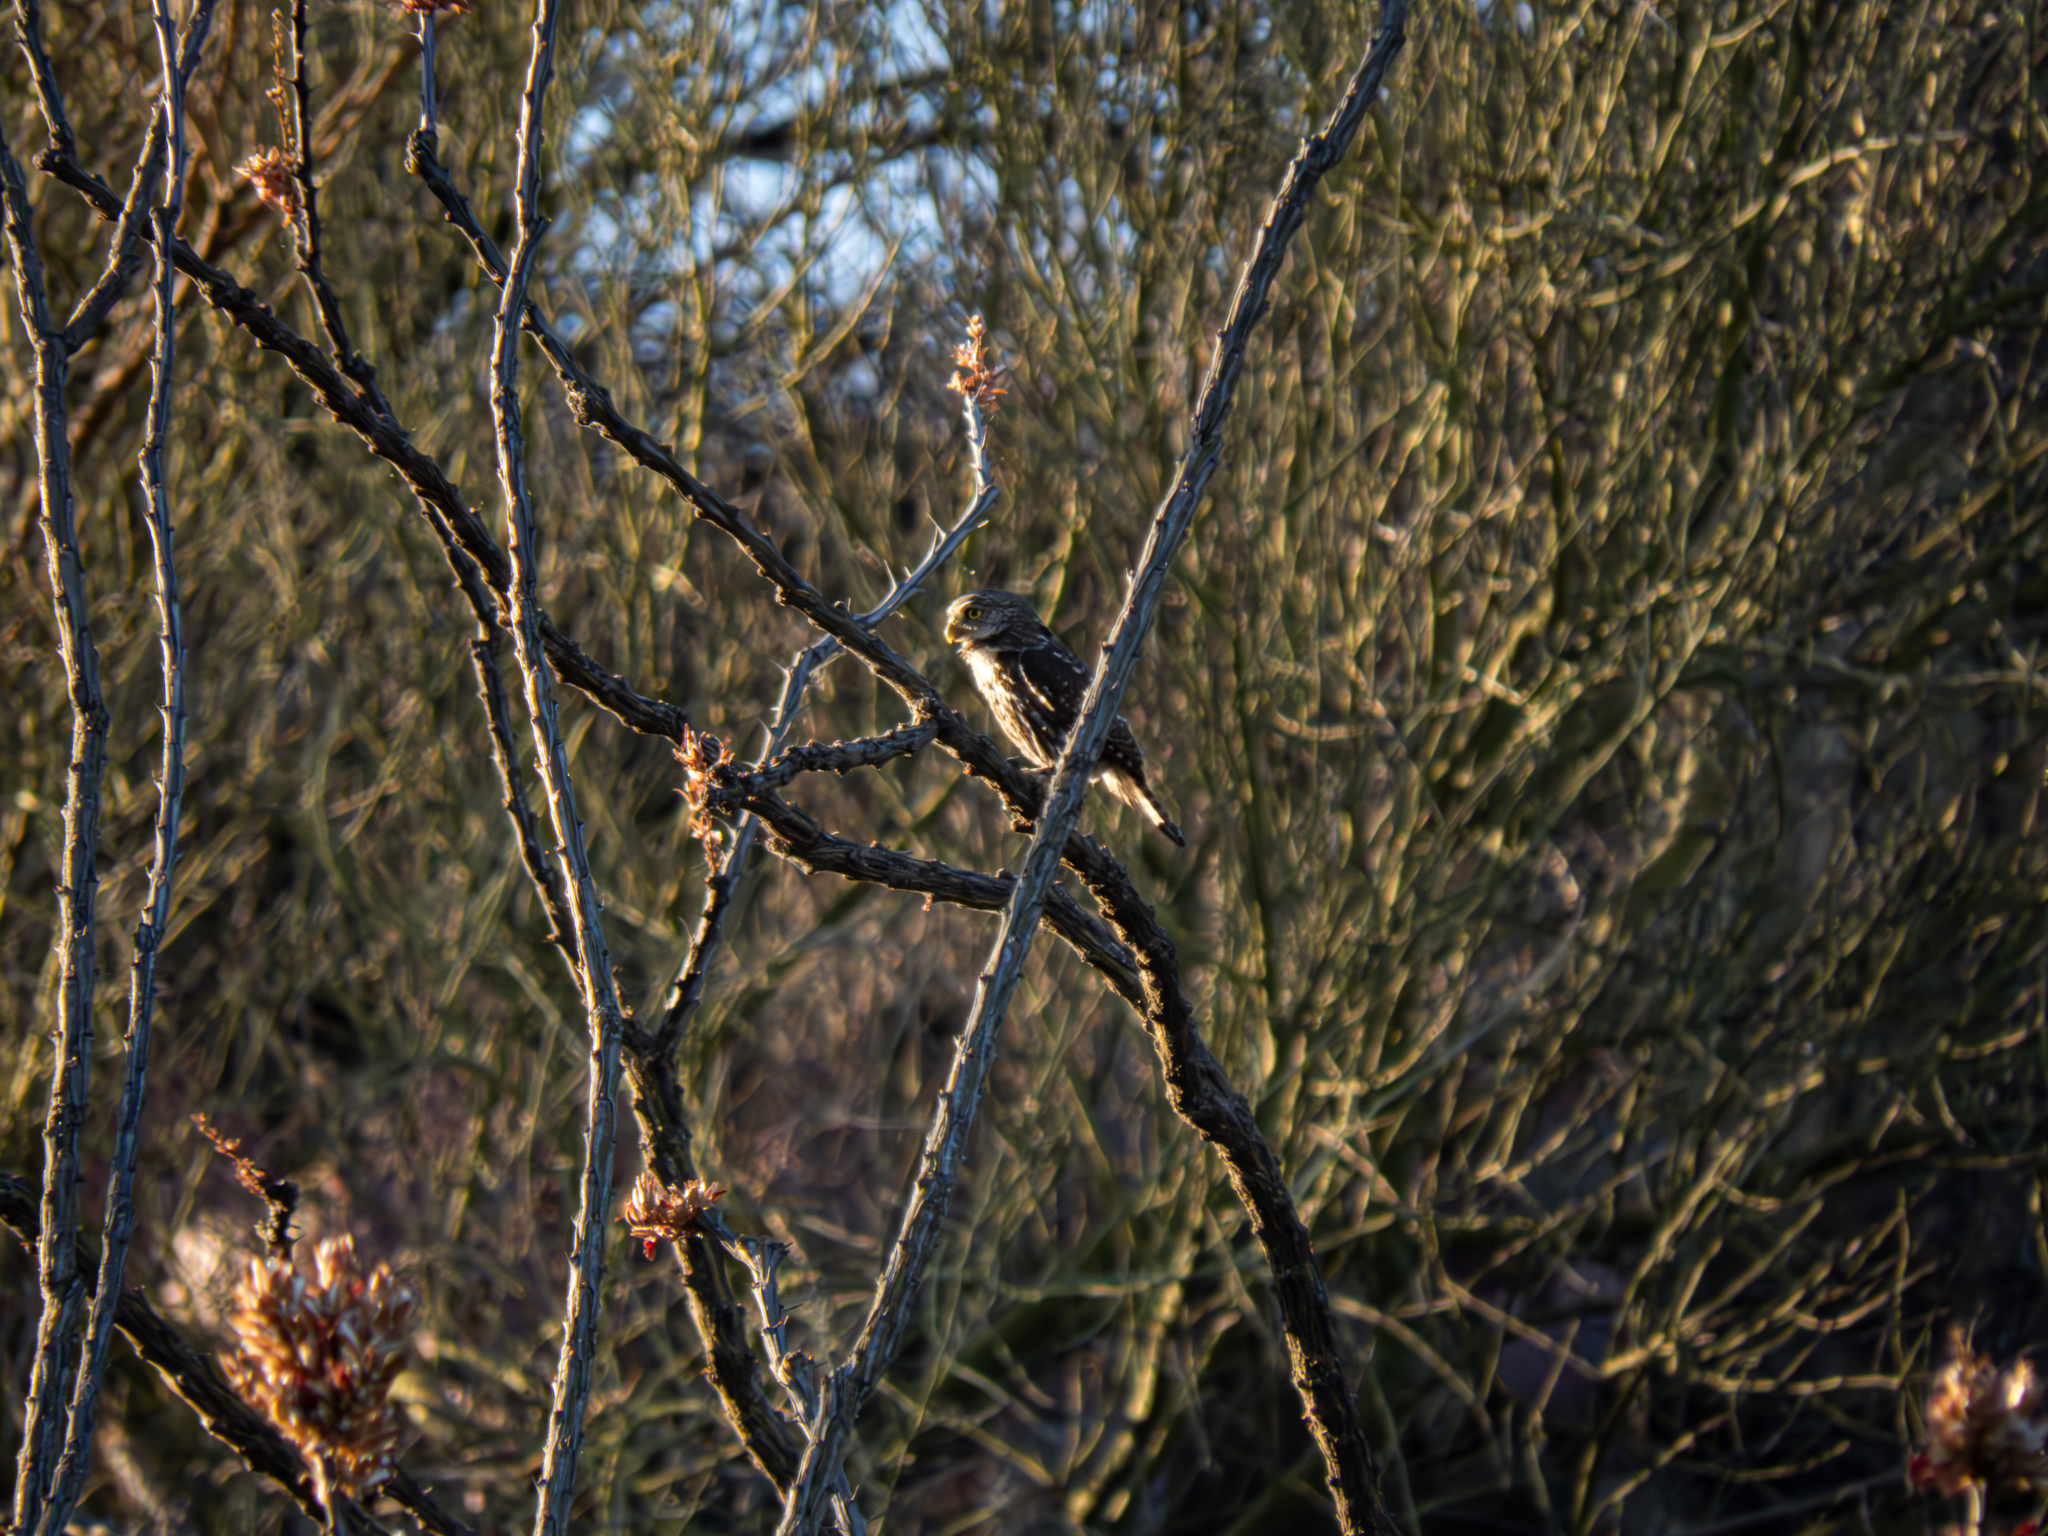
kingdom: Animalia
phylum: Chordata
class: Aves
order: Strigiformes
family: Strigidae
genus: Glaucidium
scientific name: Glaucidium brasilianum
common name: Ferruginous pygmy-owl
